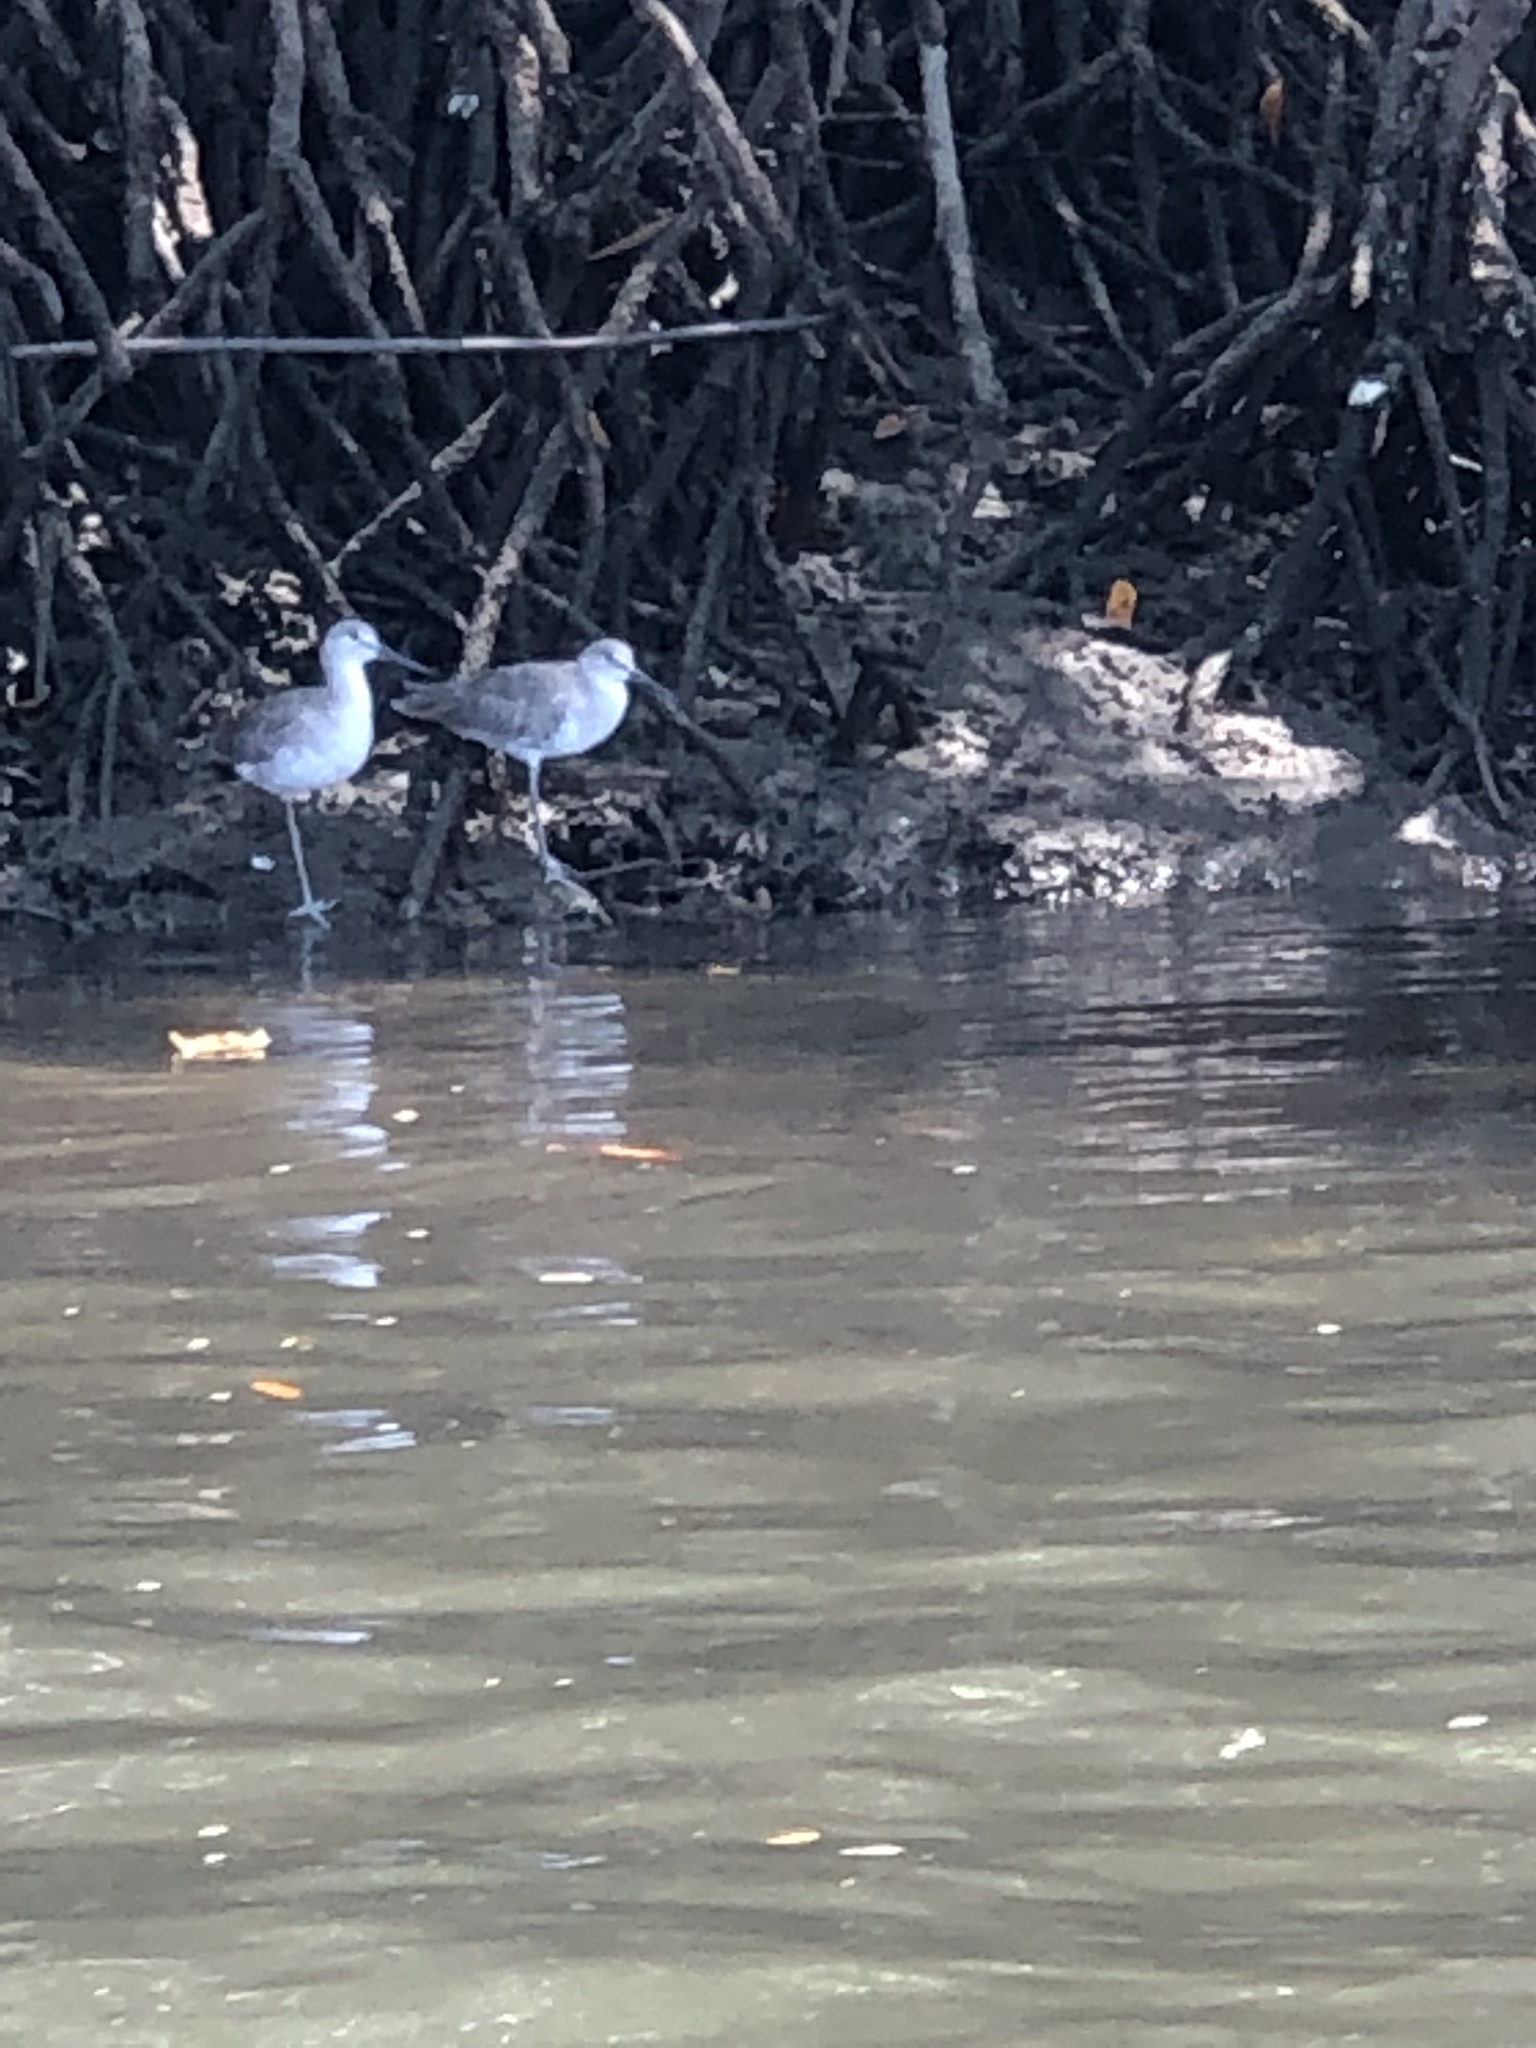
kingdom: Animalia
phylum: Chordata
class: Aves
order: Charadriiformes
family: Scolopacidae
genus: Tringa
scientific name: Tringa semipalmata
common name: Willet
